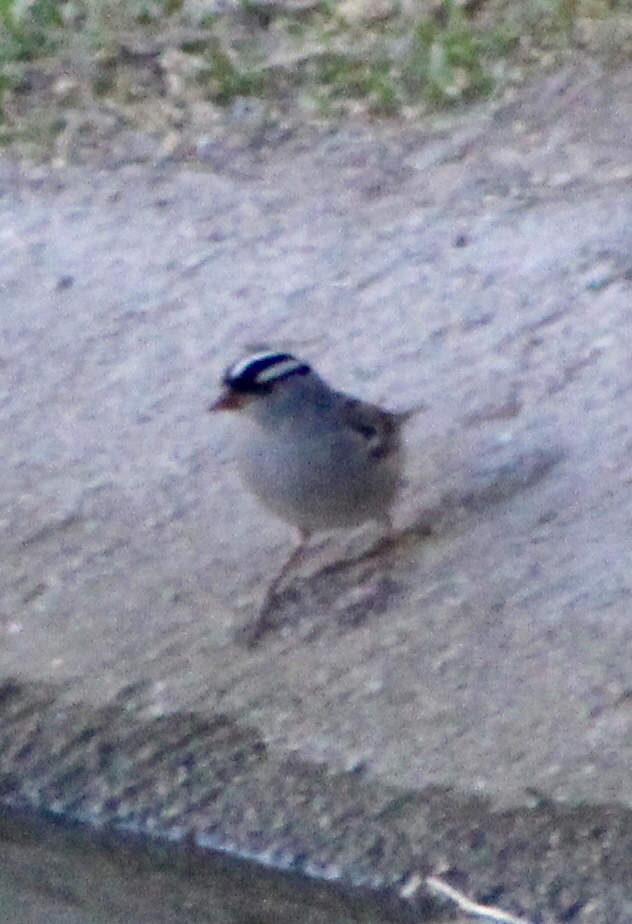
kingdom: Animalia
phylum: Chordata
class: Aves
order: Passeriformes
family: Passerellidae
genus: Zonotrichia
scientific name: Zonotrichia leucophrys
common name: White-crowned sparrow
